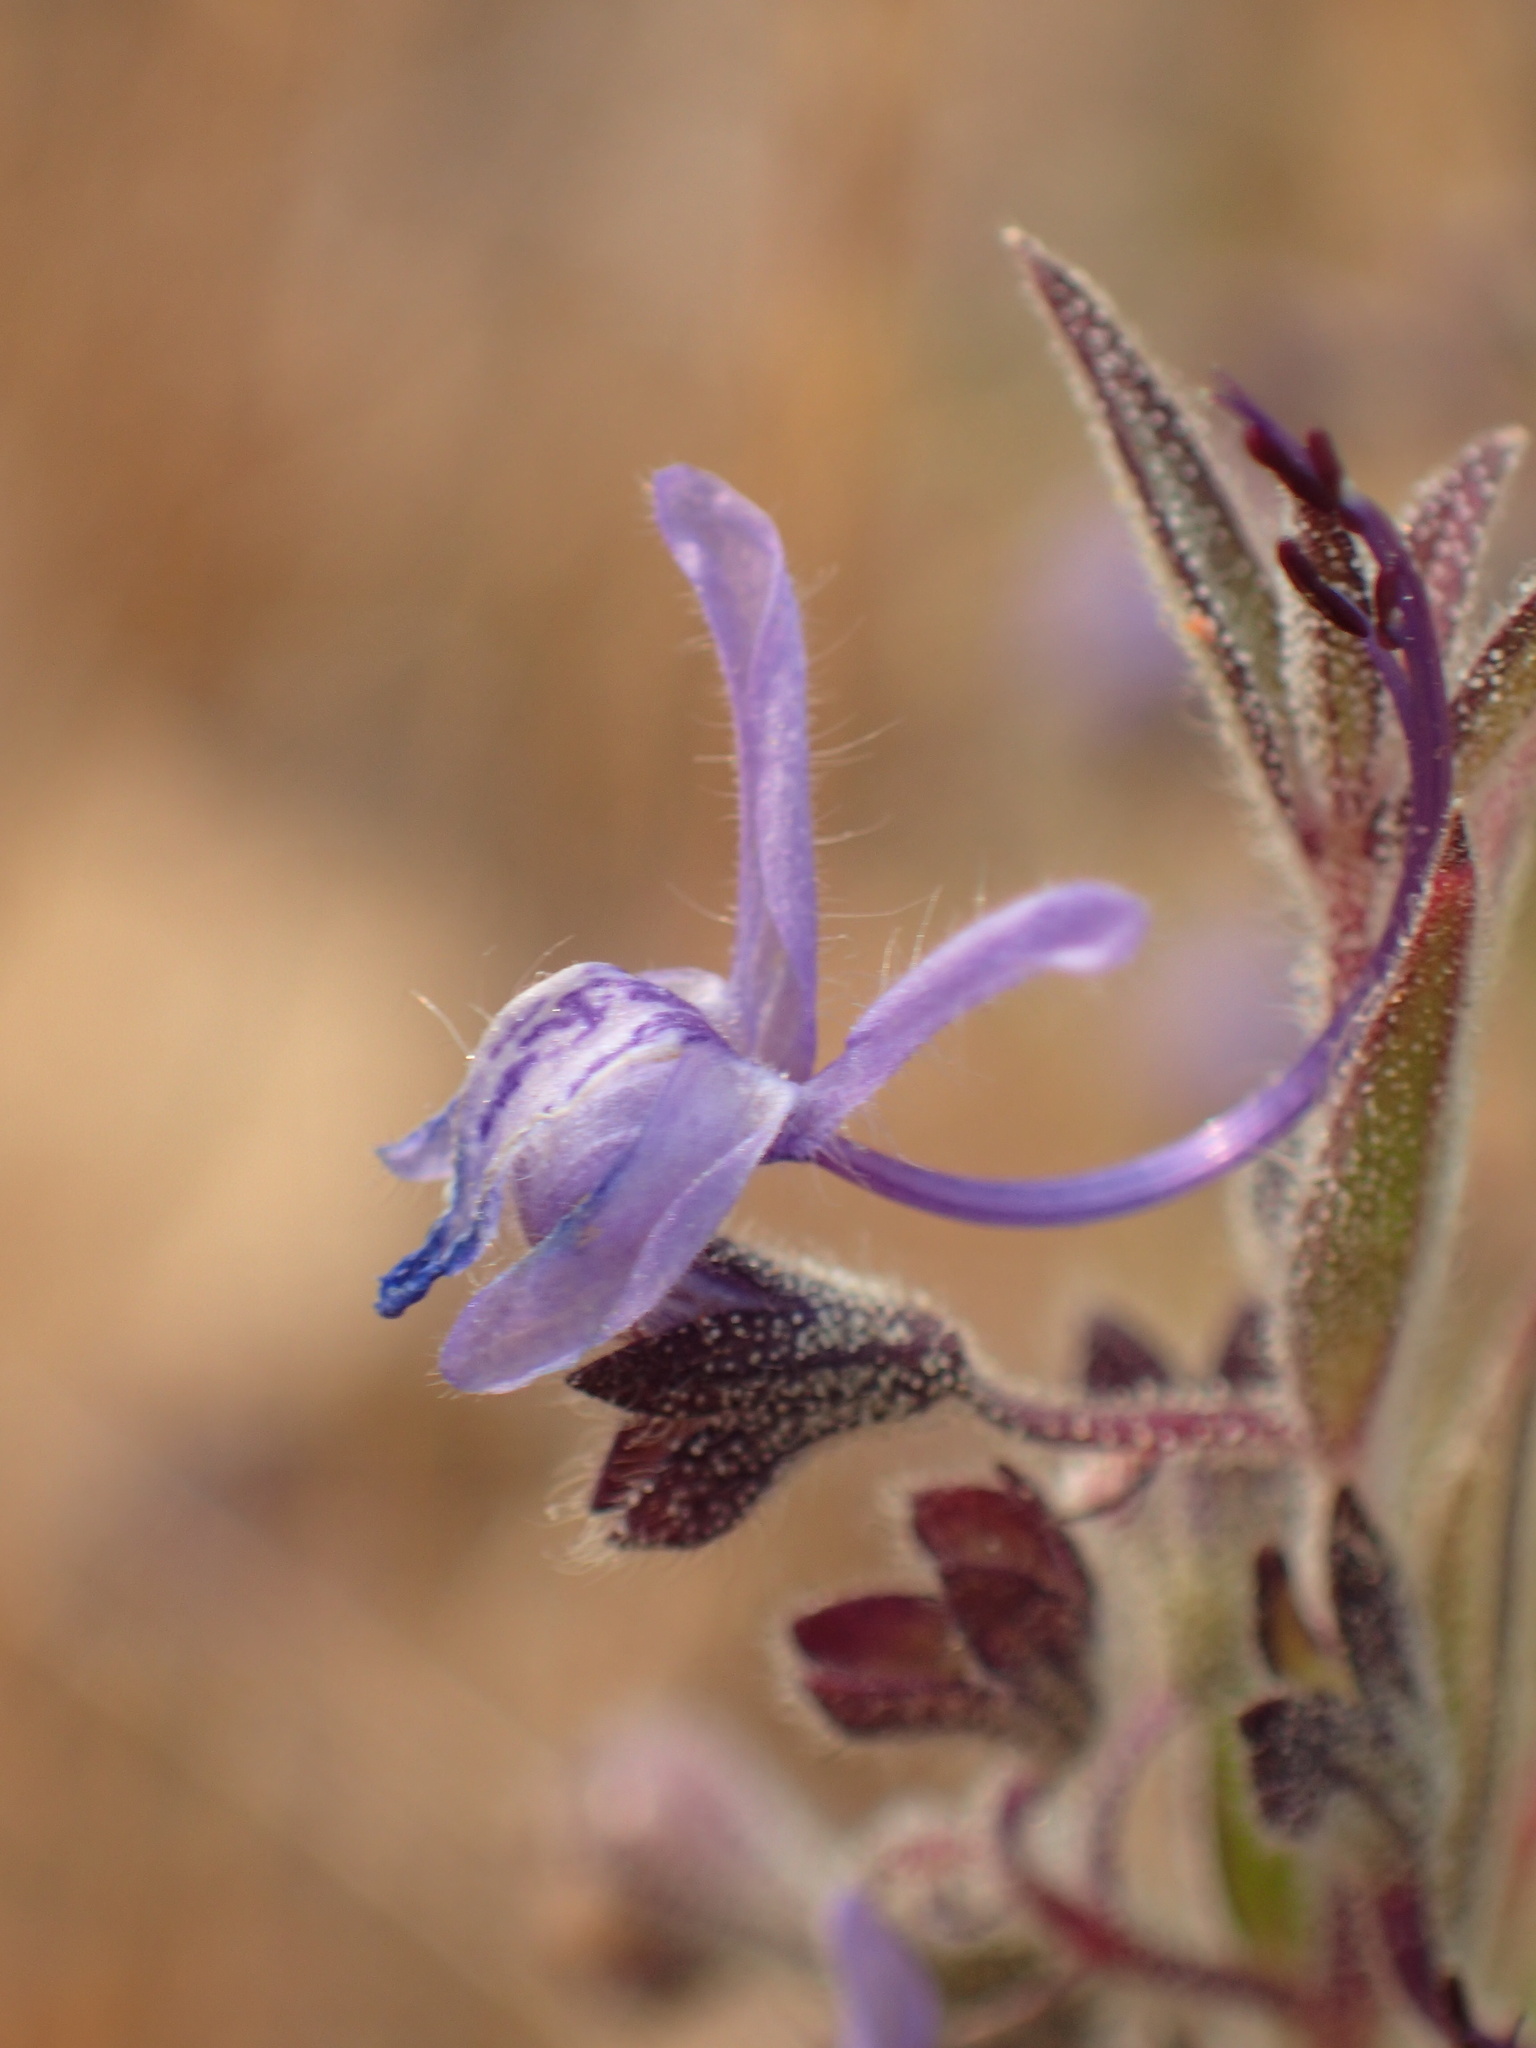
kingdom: Plantae
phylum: Tracheophyta
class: Magnoliopsida
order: Lamiales
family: Lamiaceae
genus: Trichostema
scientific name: Trichostema lanceolatum
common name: Vinegar-weed
